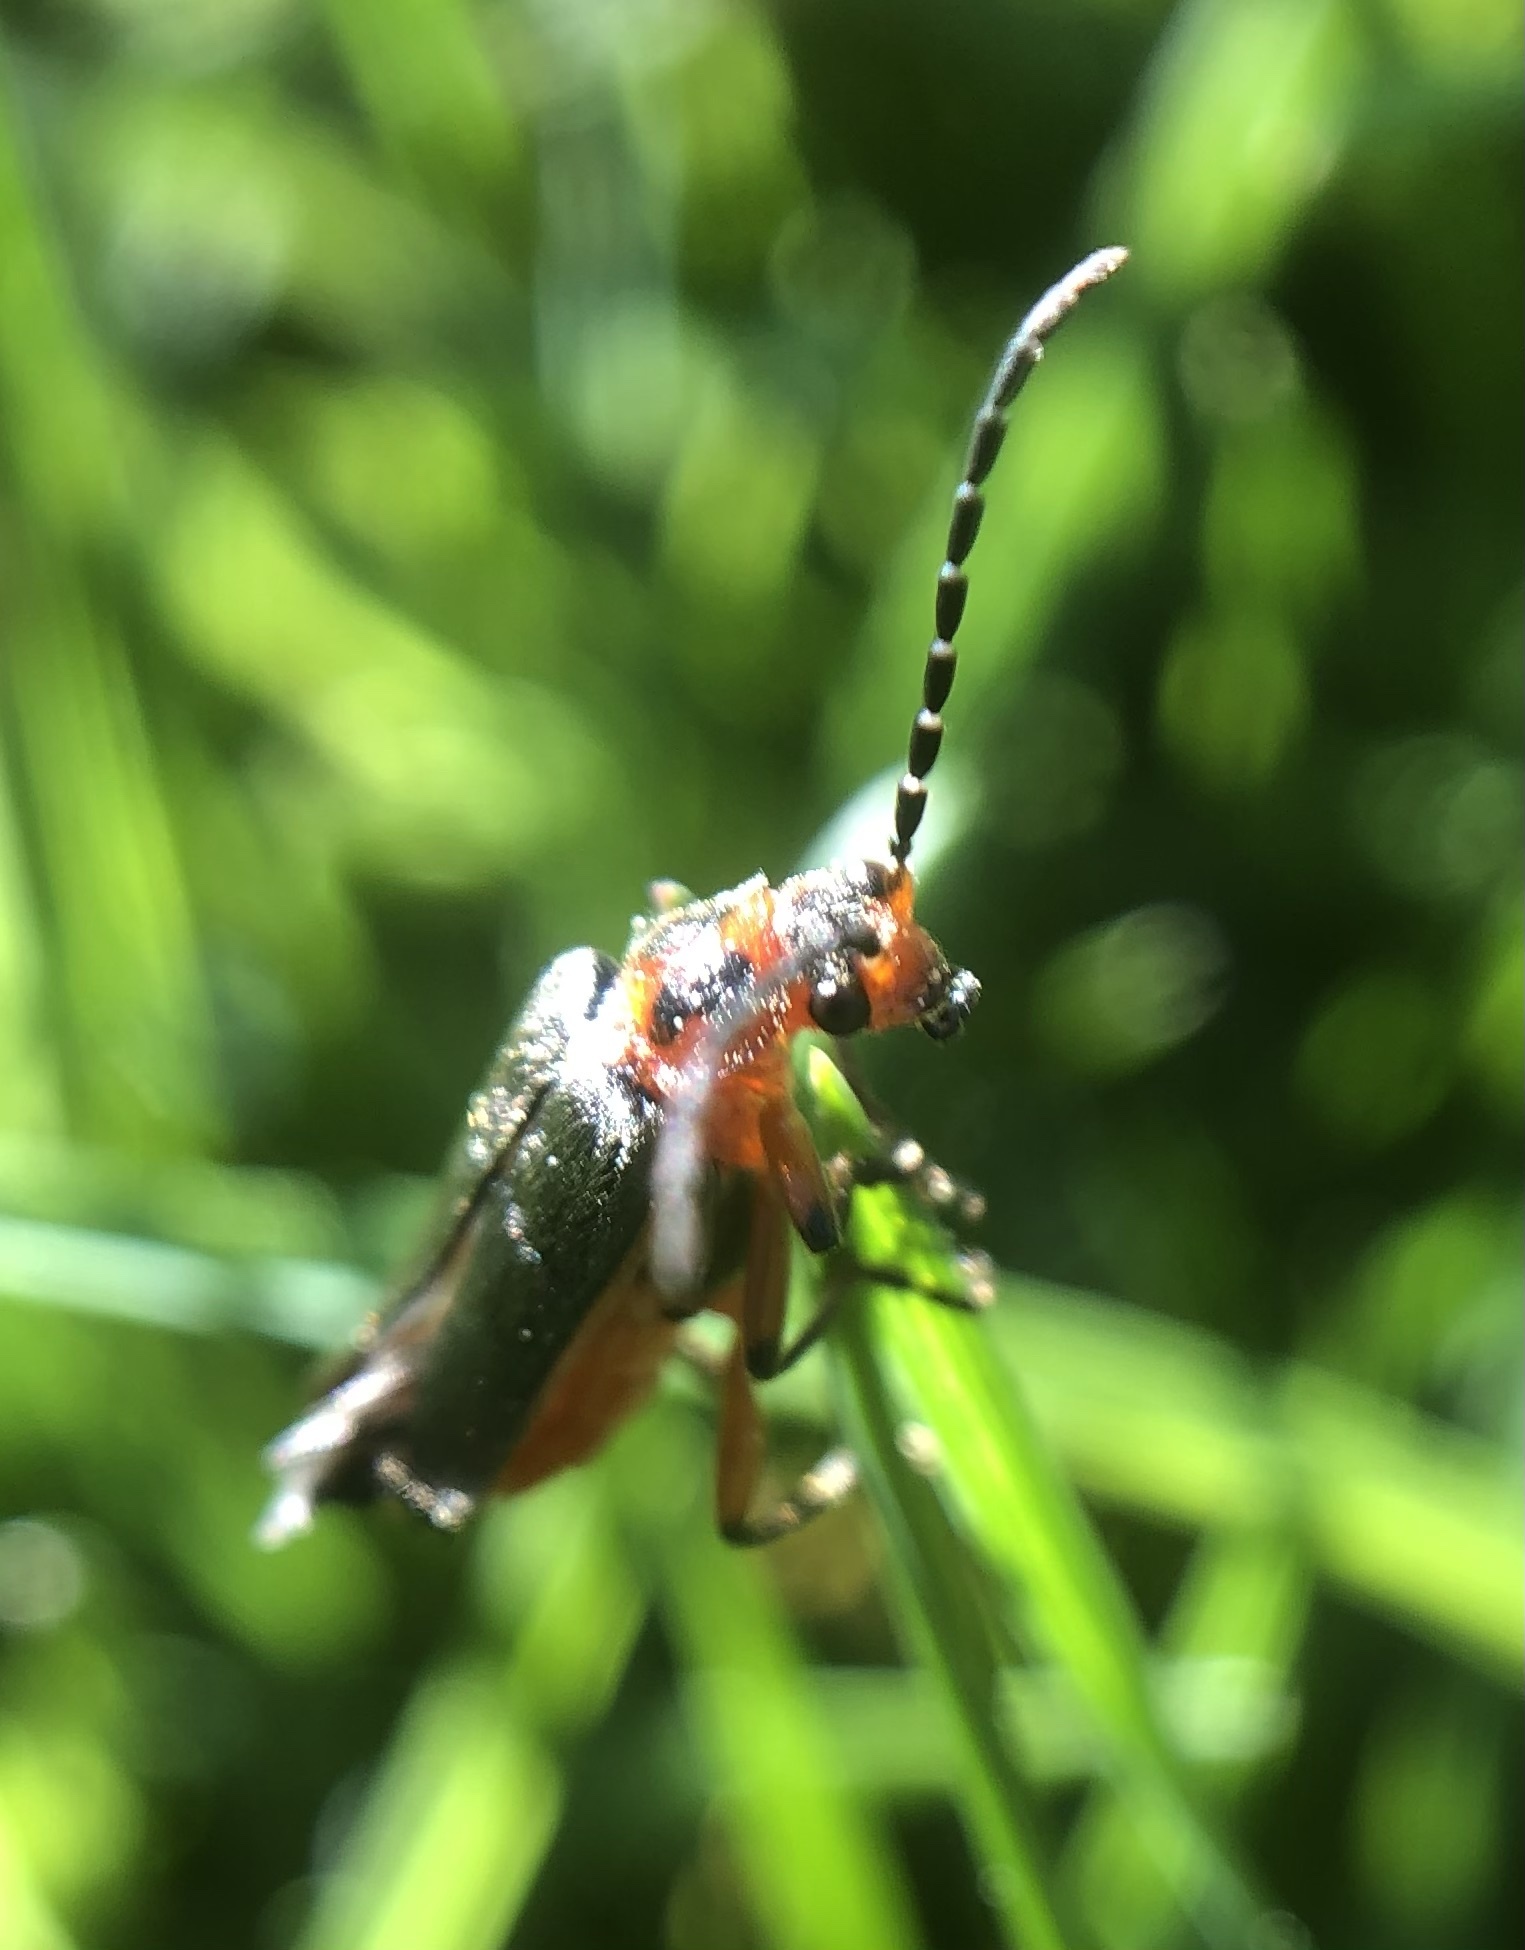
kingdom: Animalia
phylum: Arthropoda
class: Insecta
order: Coleoptera
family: Cantharidae
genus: Atalantycha
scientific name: Atalantycha bilineata
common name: Two-lined leatherwing
